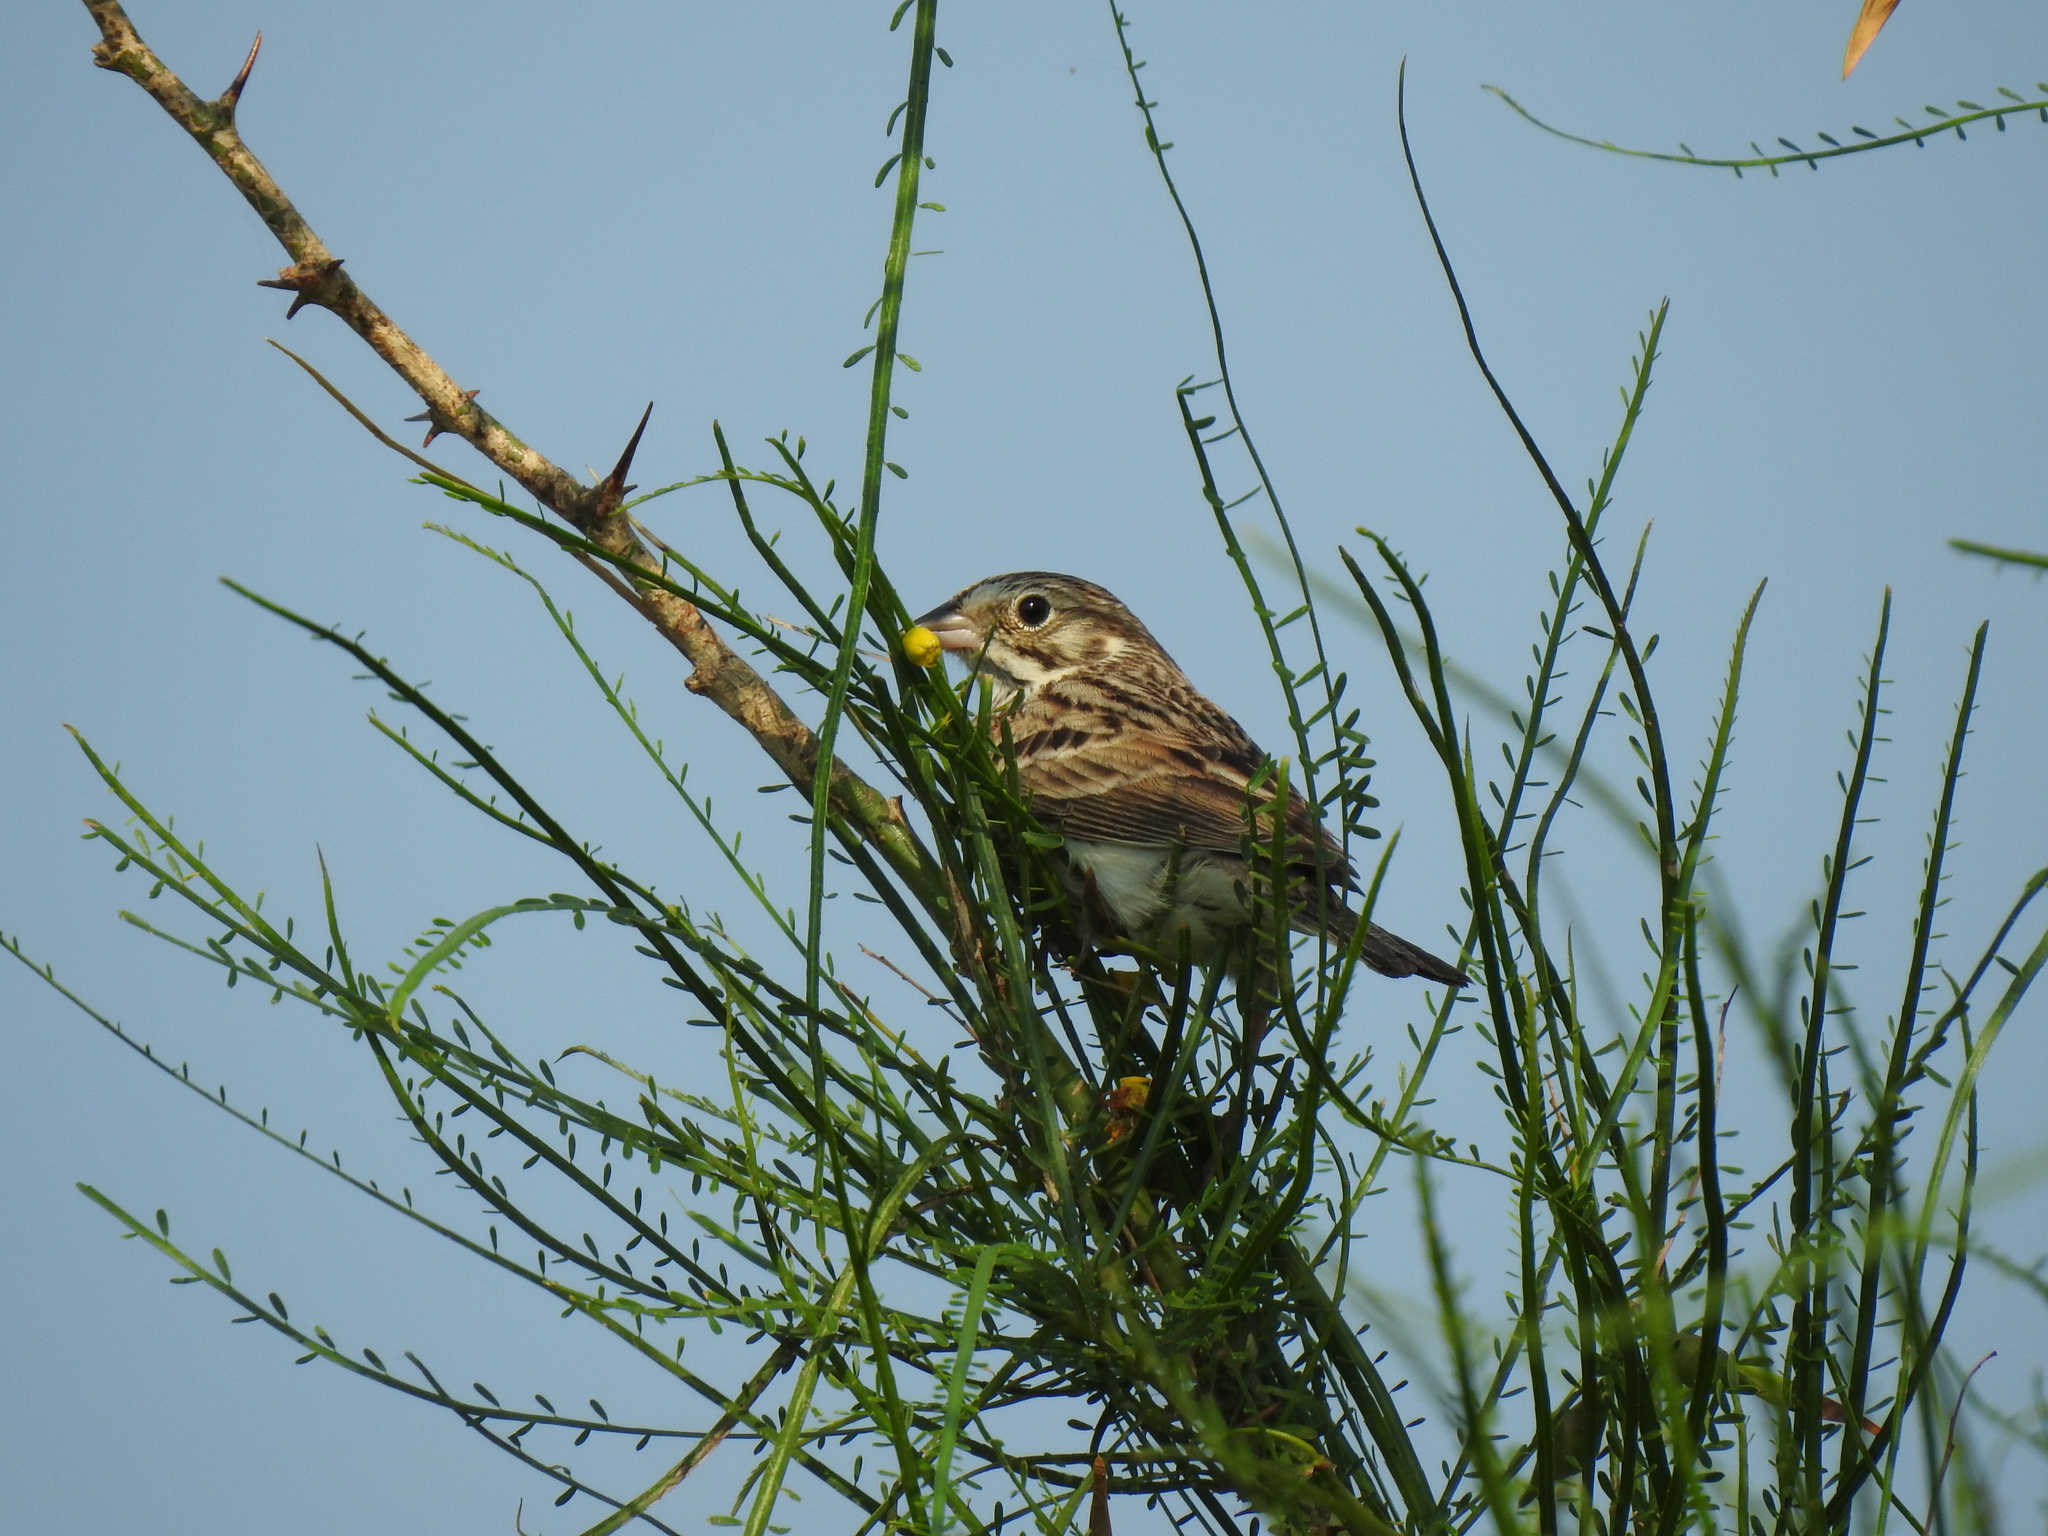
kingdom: Animalia
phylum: Chordata
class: Aves
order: Passeriformes
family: Passerellidae
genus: Pooecetes
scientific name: Pooecetes gramineus
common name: Vesper sparrow
